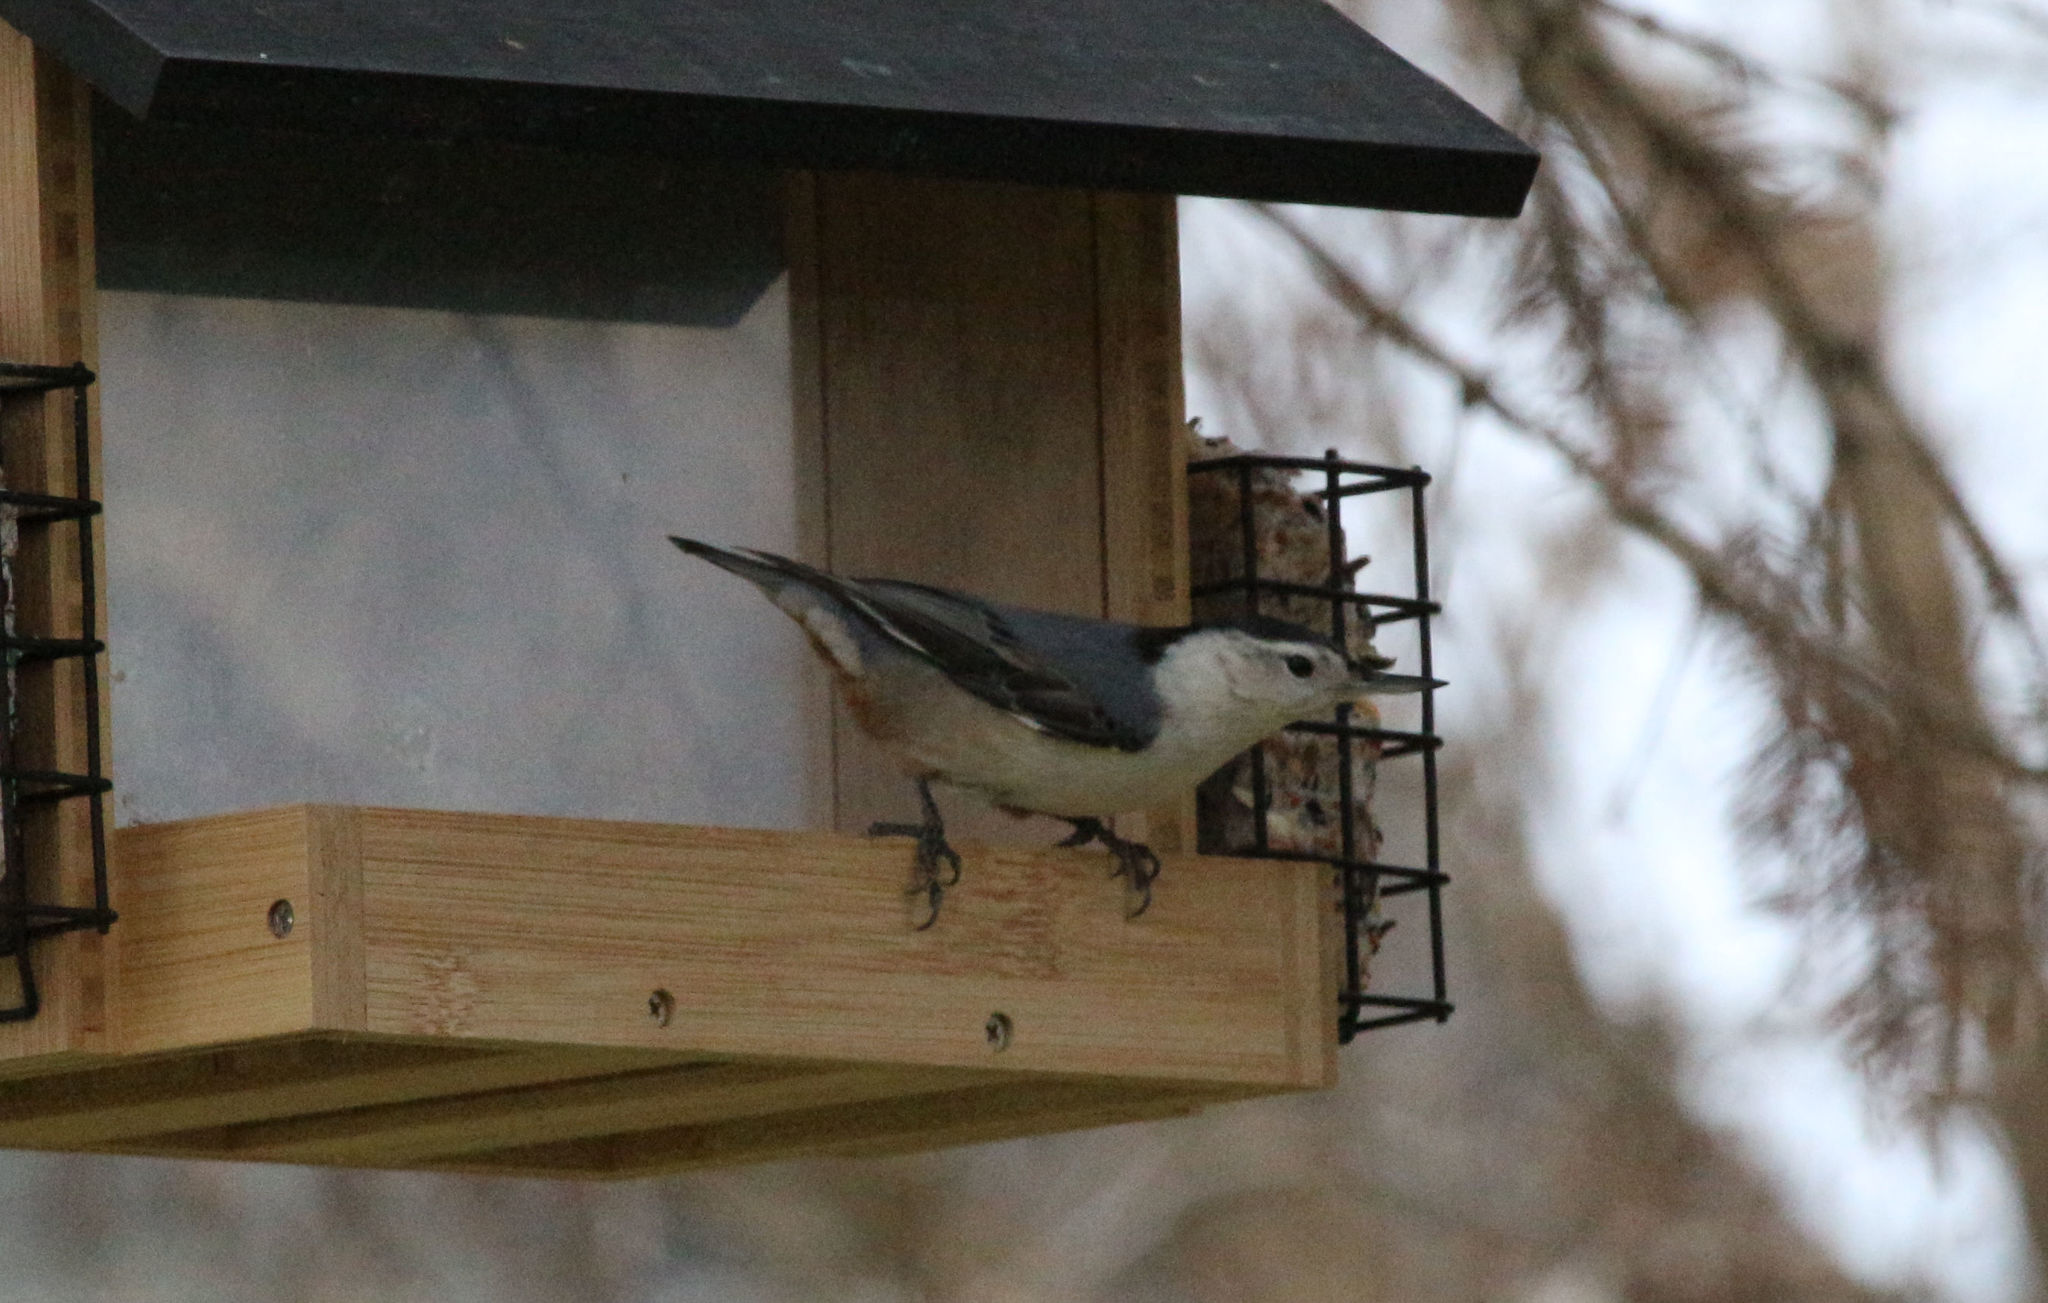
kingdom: Animalia
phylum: Chordata
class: Aves
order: Passeriformes
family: Sittidae
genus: Sitta
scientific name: Sitta carolinensis
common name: White-breasted nuthatch
